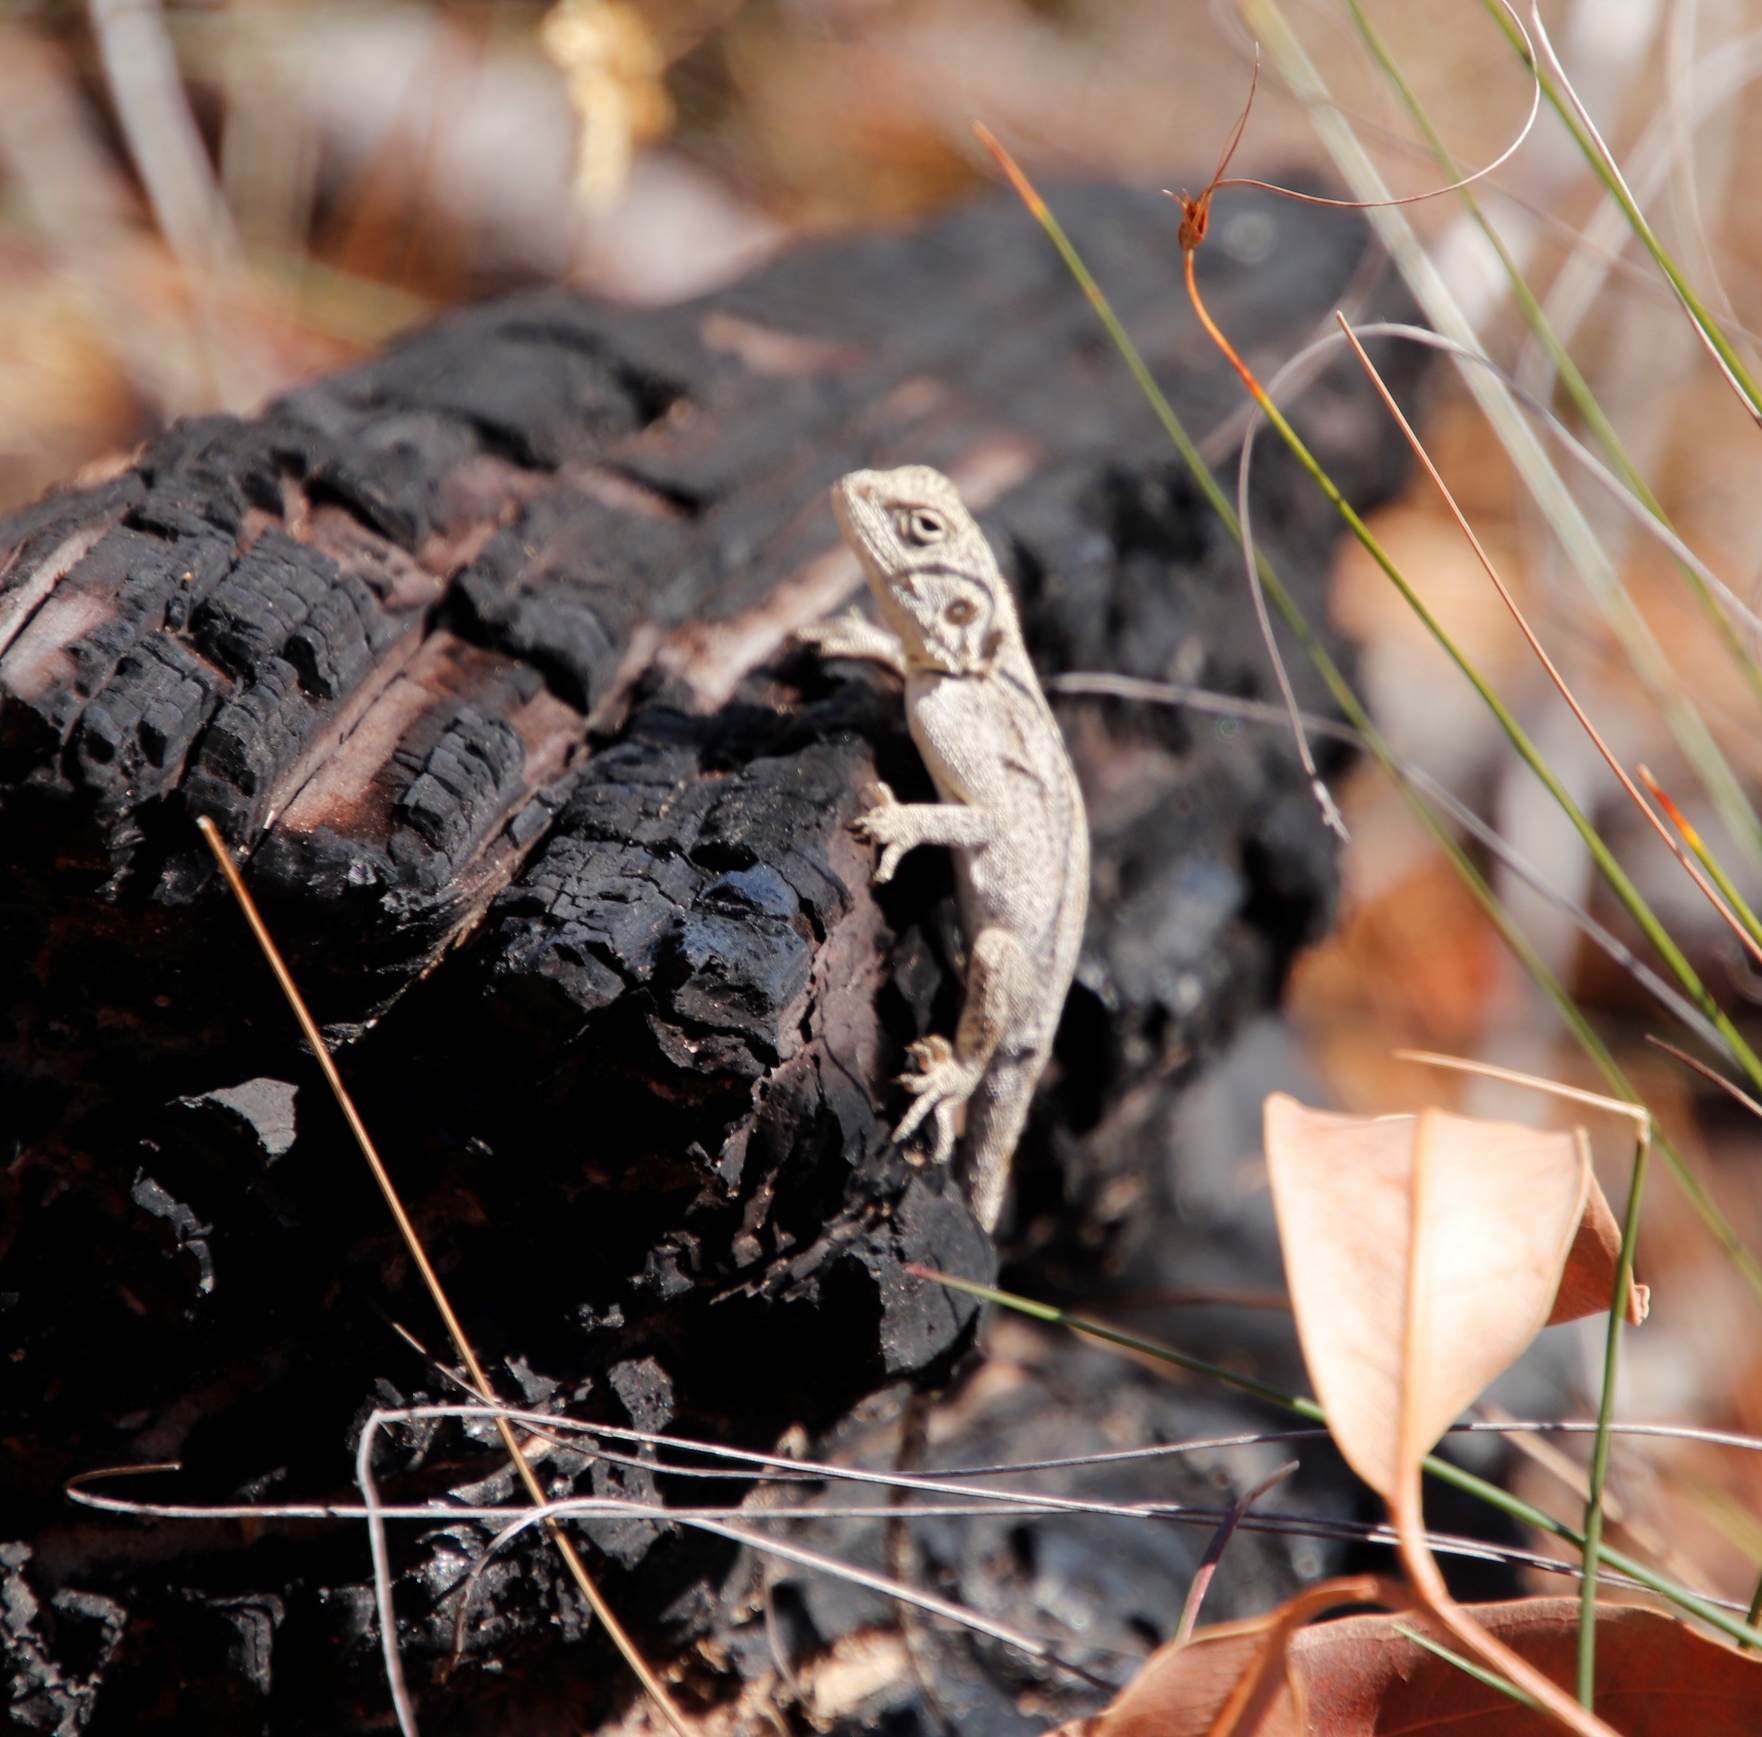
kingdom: Animalia
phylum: Chordata
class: Squamata
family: Agamidae
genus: Agama
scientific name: Agama atra
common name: Southern african rock agama
